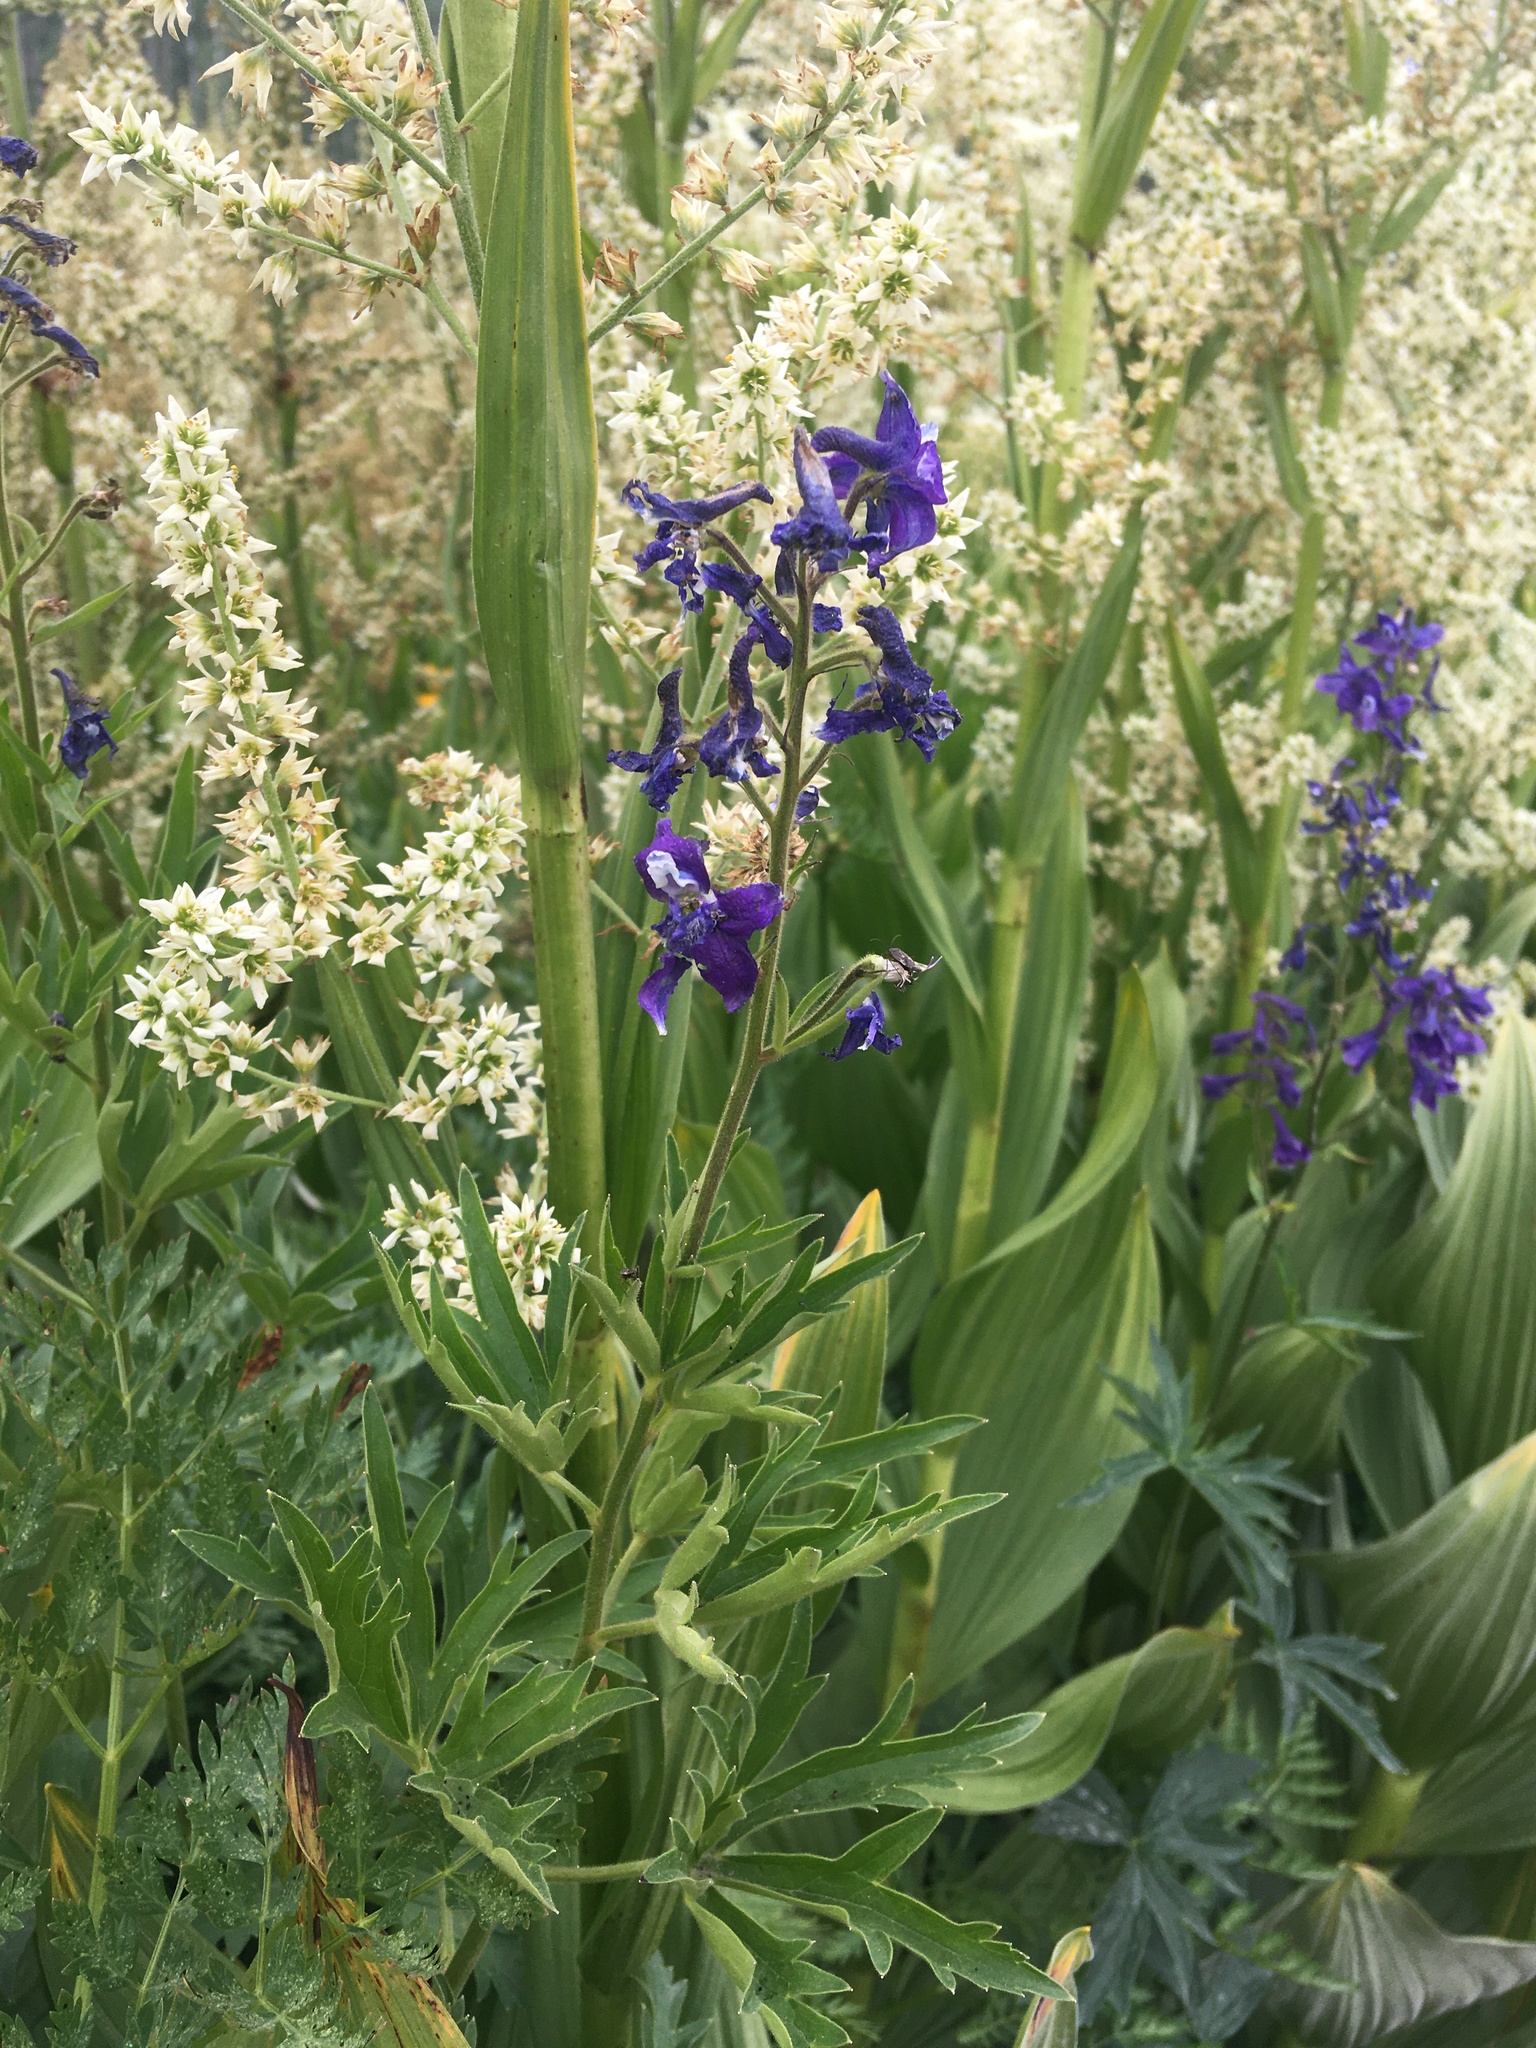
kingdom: Plantae
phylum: Tracheophyta
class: Magnoliopsida
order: Ranunculales
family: Ranunculaceae
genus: Delphinium
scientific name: Delphinium barbeyi
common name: Subalpine larkspur
